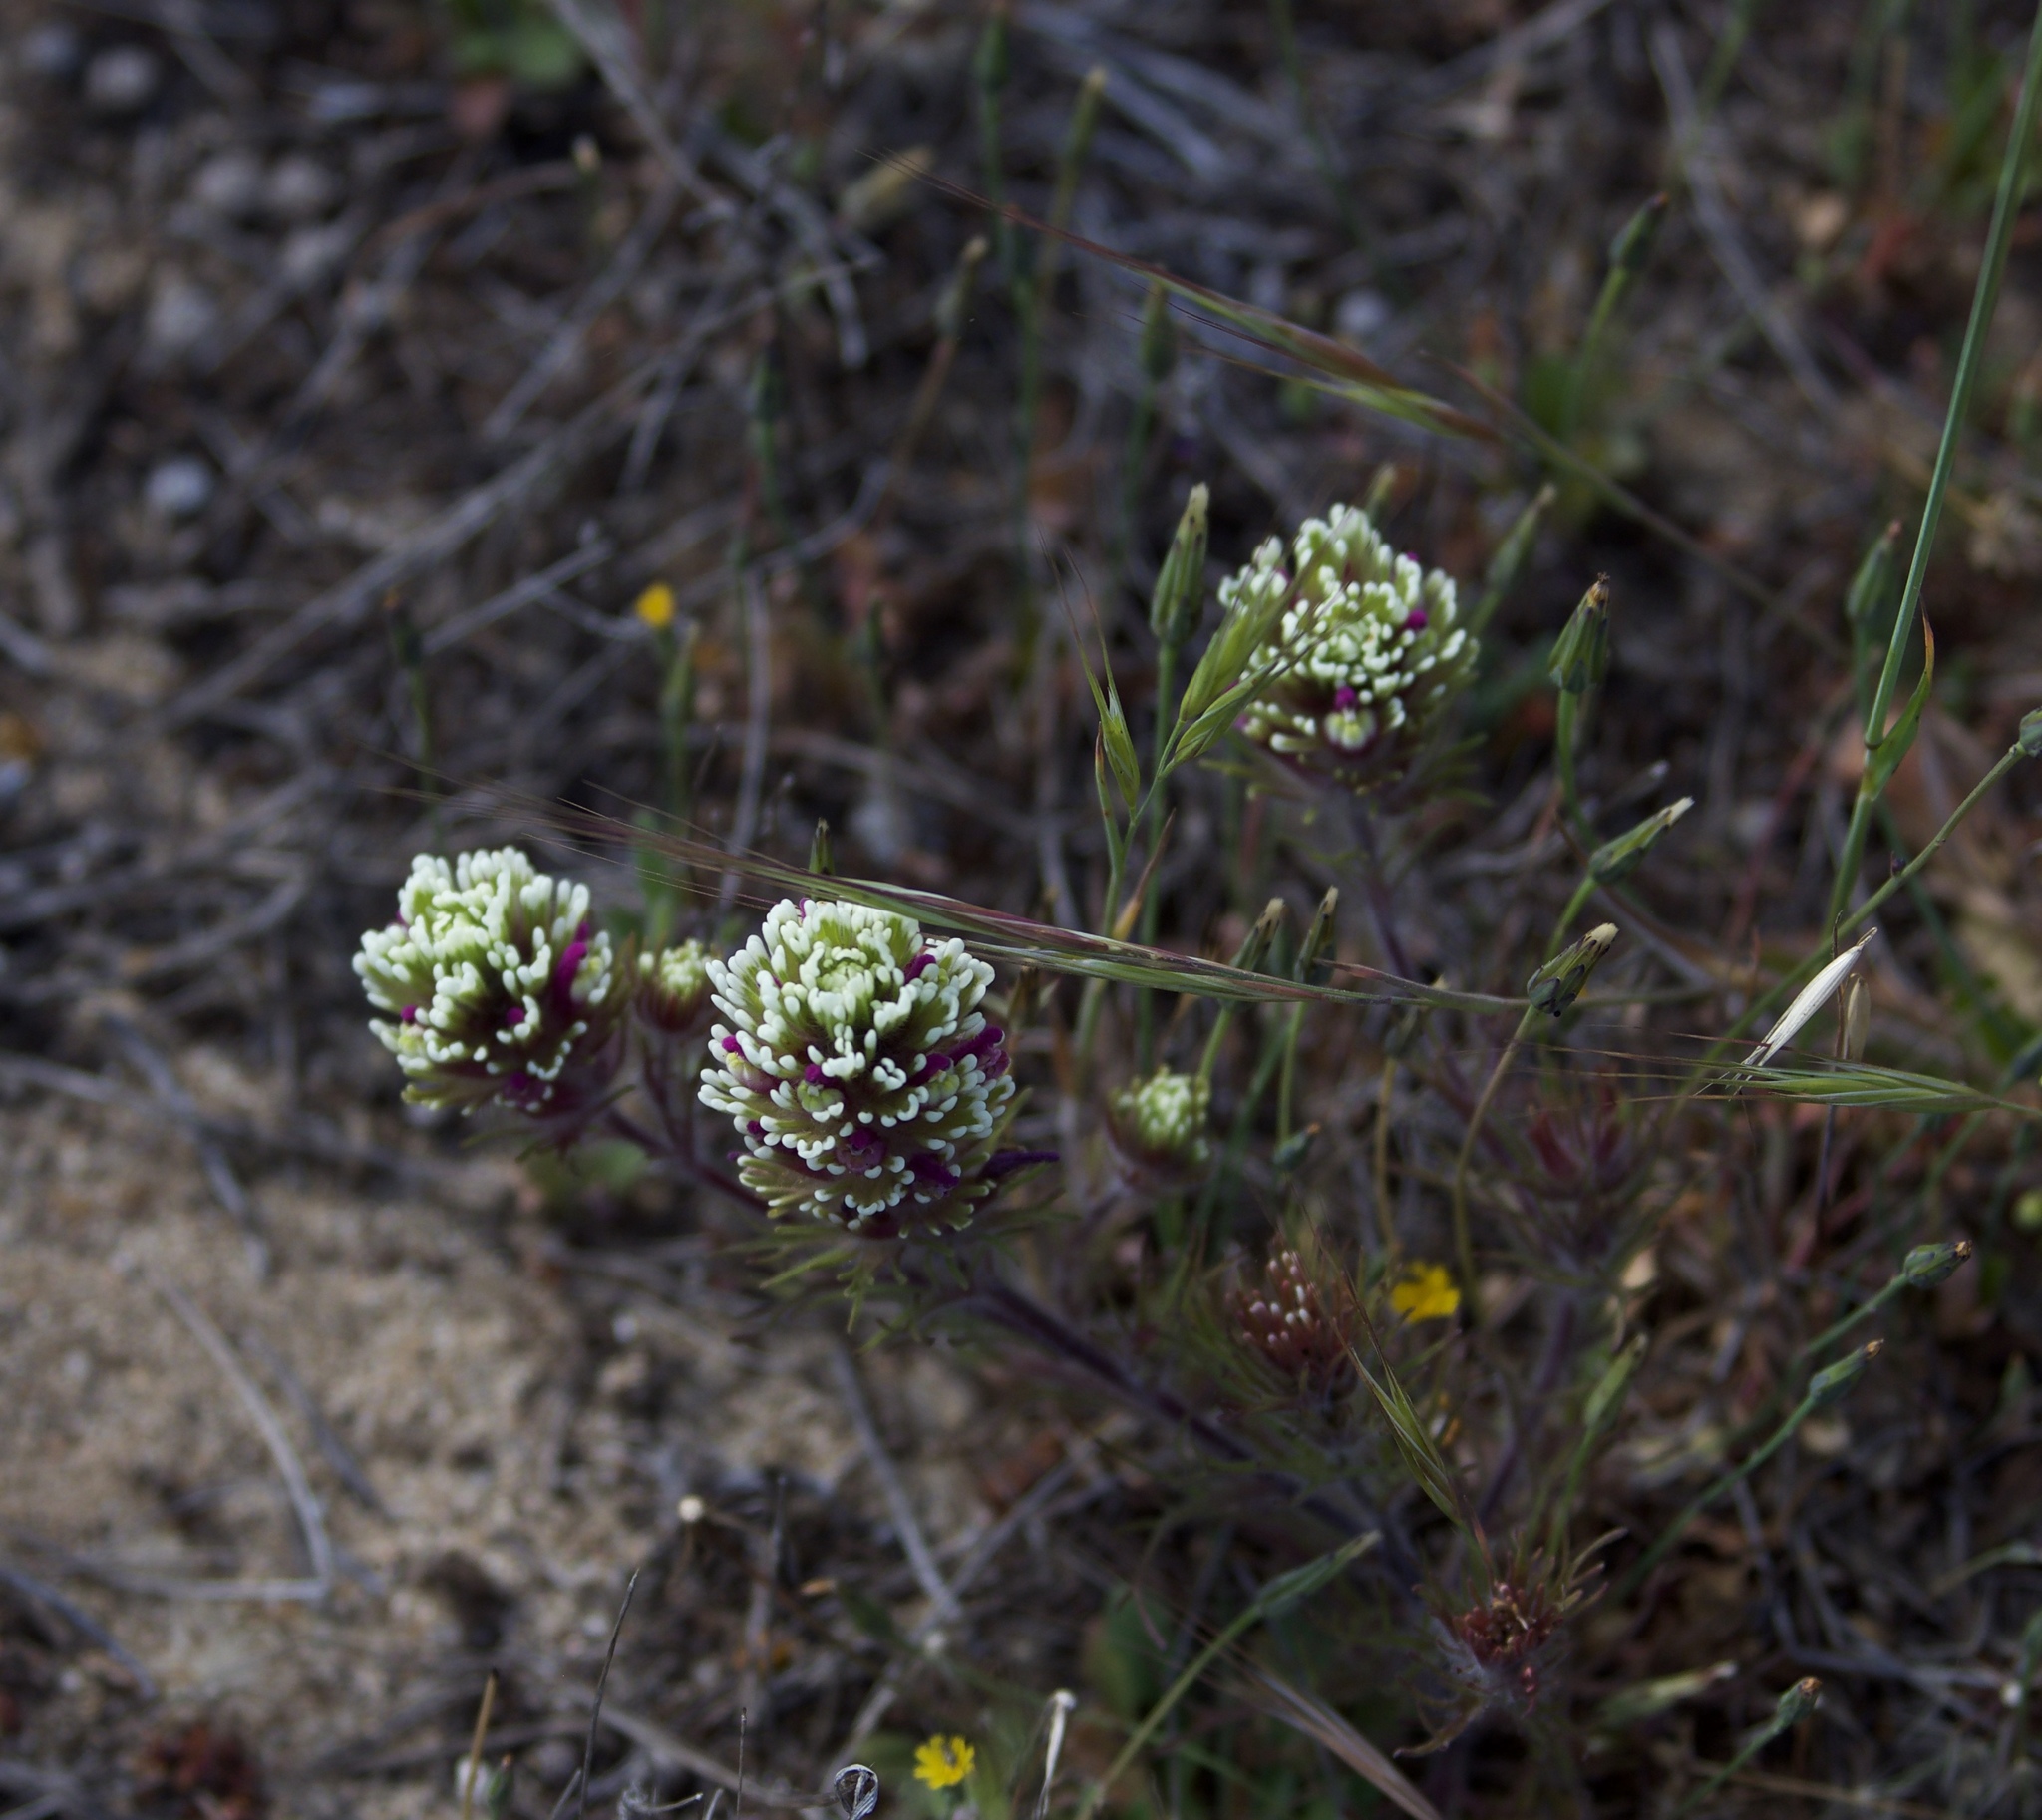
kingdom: Plantae
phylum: Tracheophyta
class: Magnoliopsida
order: Lamiales
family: Orobanchaceae
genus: Castilleja
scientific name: Castilleja exserta
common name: Purple owl-clover
